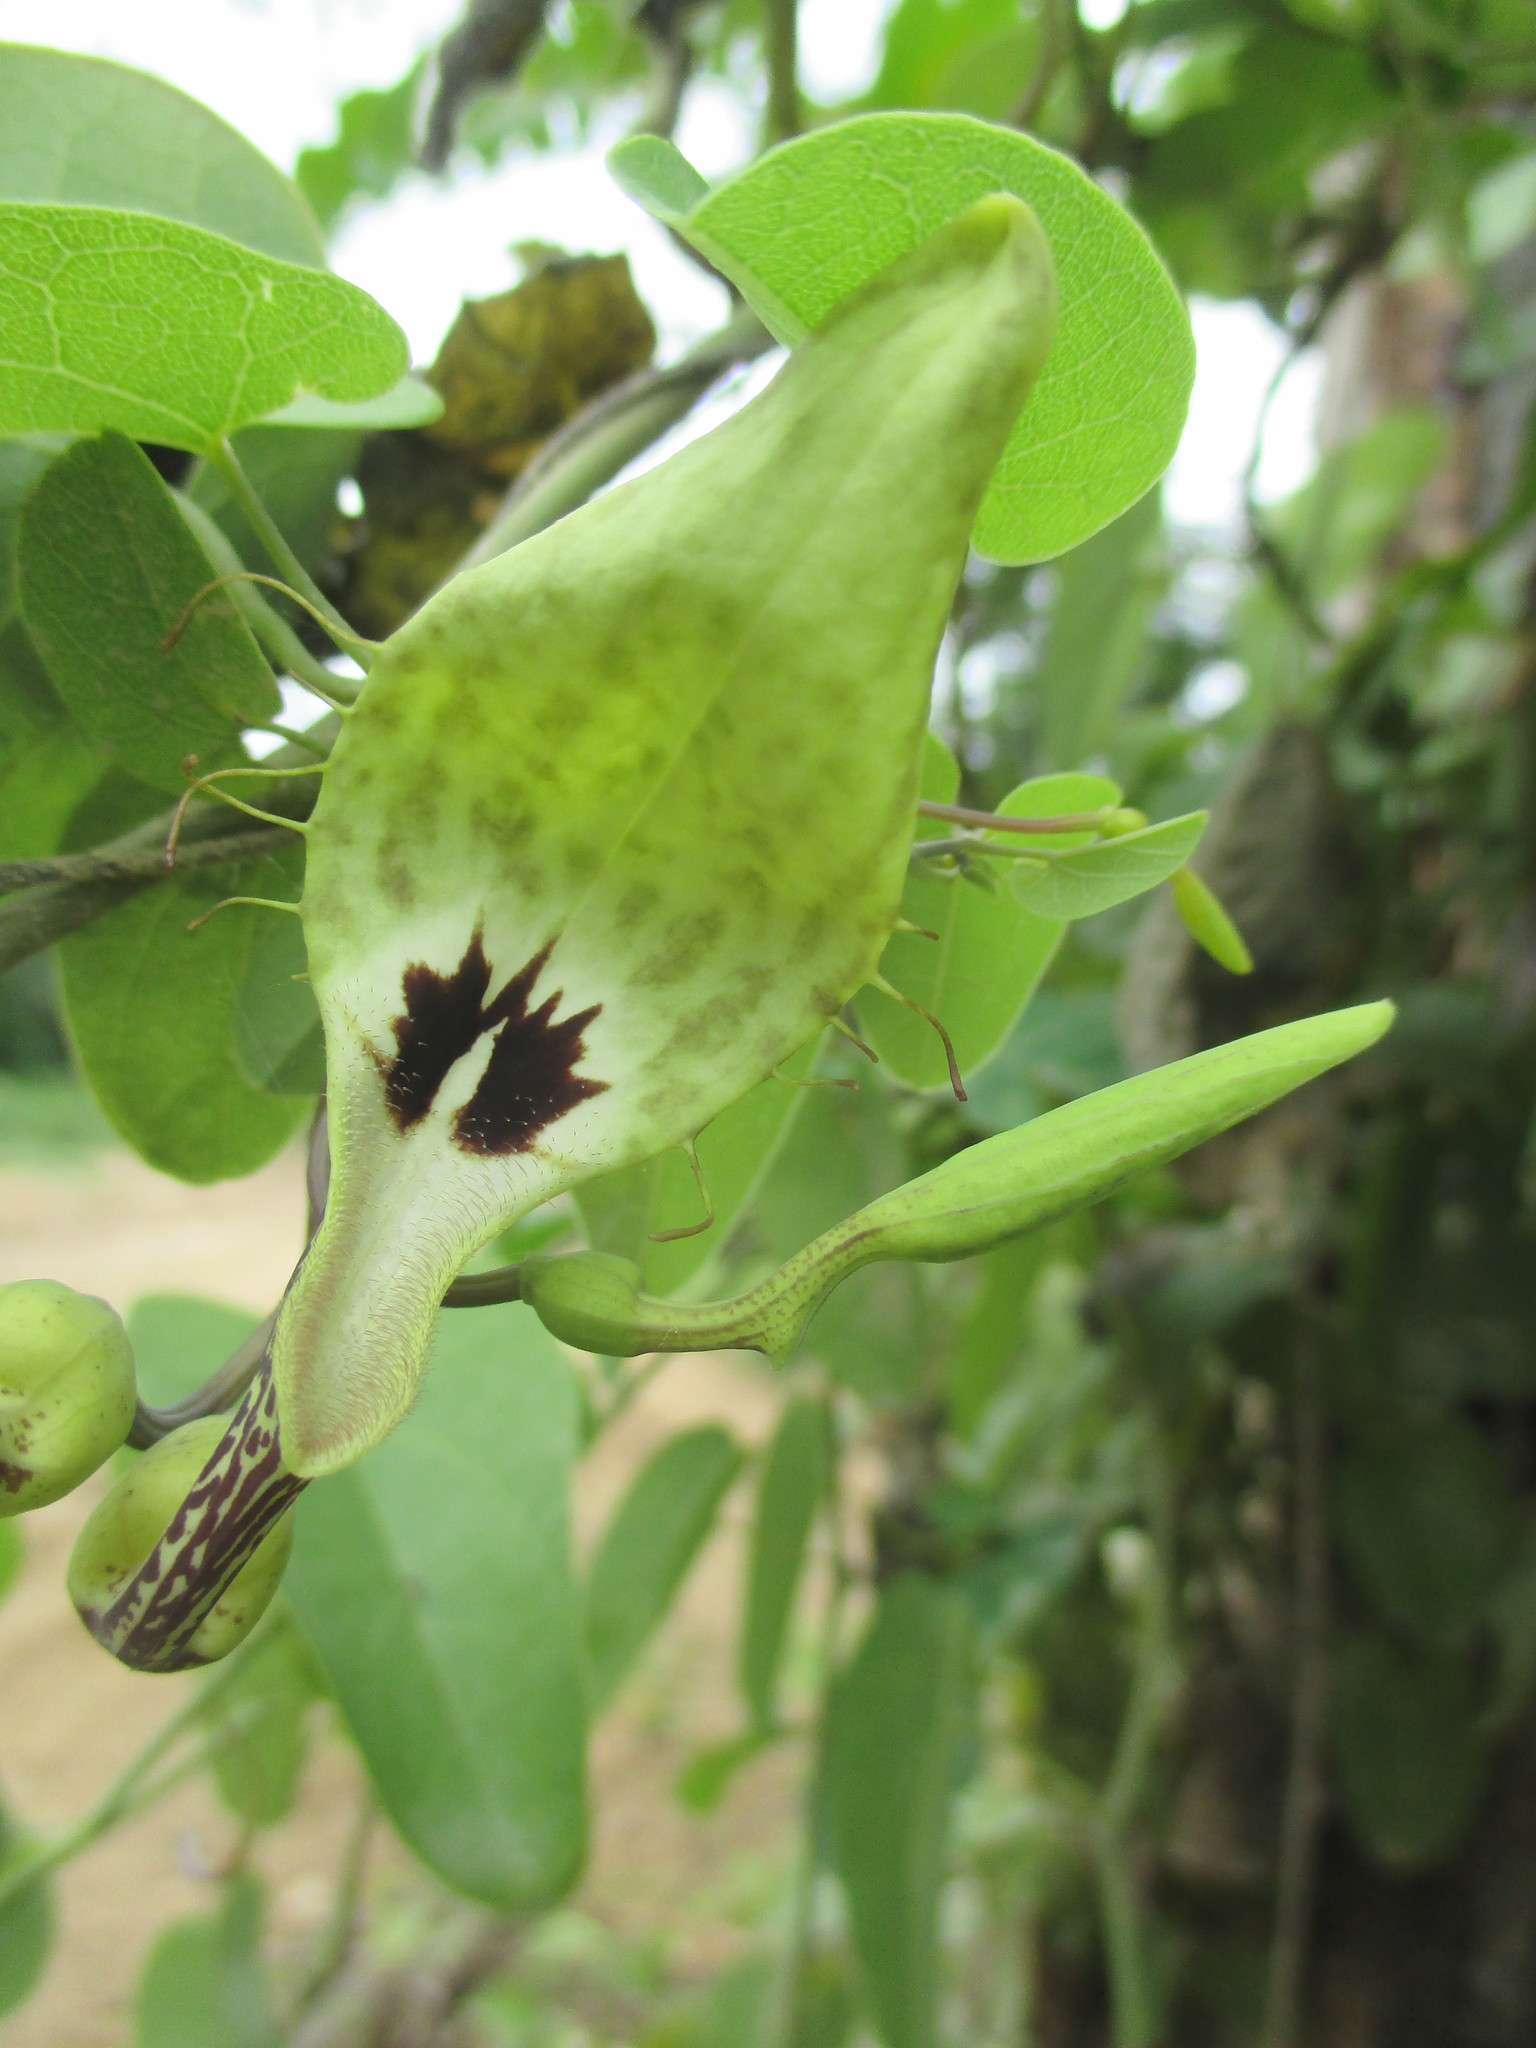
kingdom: Plantae
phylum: Tracheophyta
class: Magnoliopsida
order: Piperales
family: Aristolochiaceae
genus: Aristolochia
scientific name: Aristolochia tentaculata
